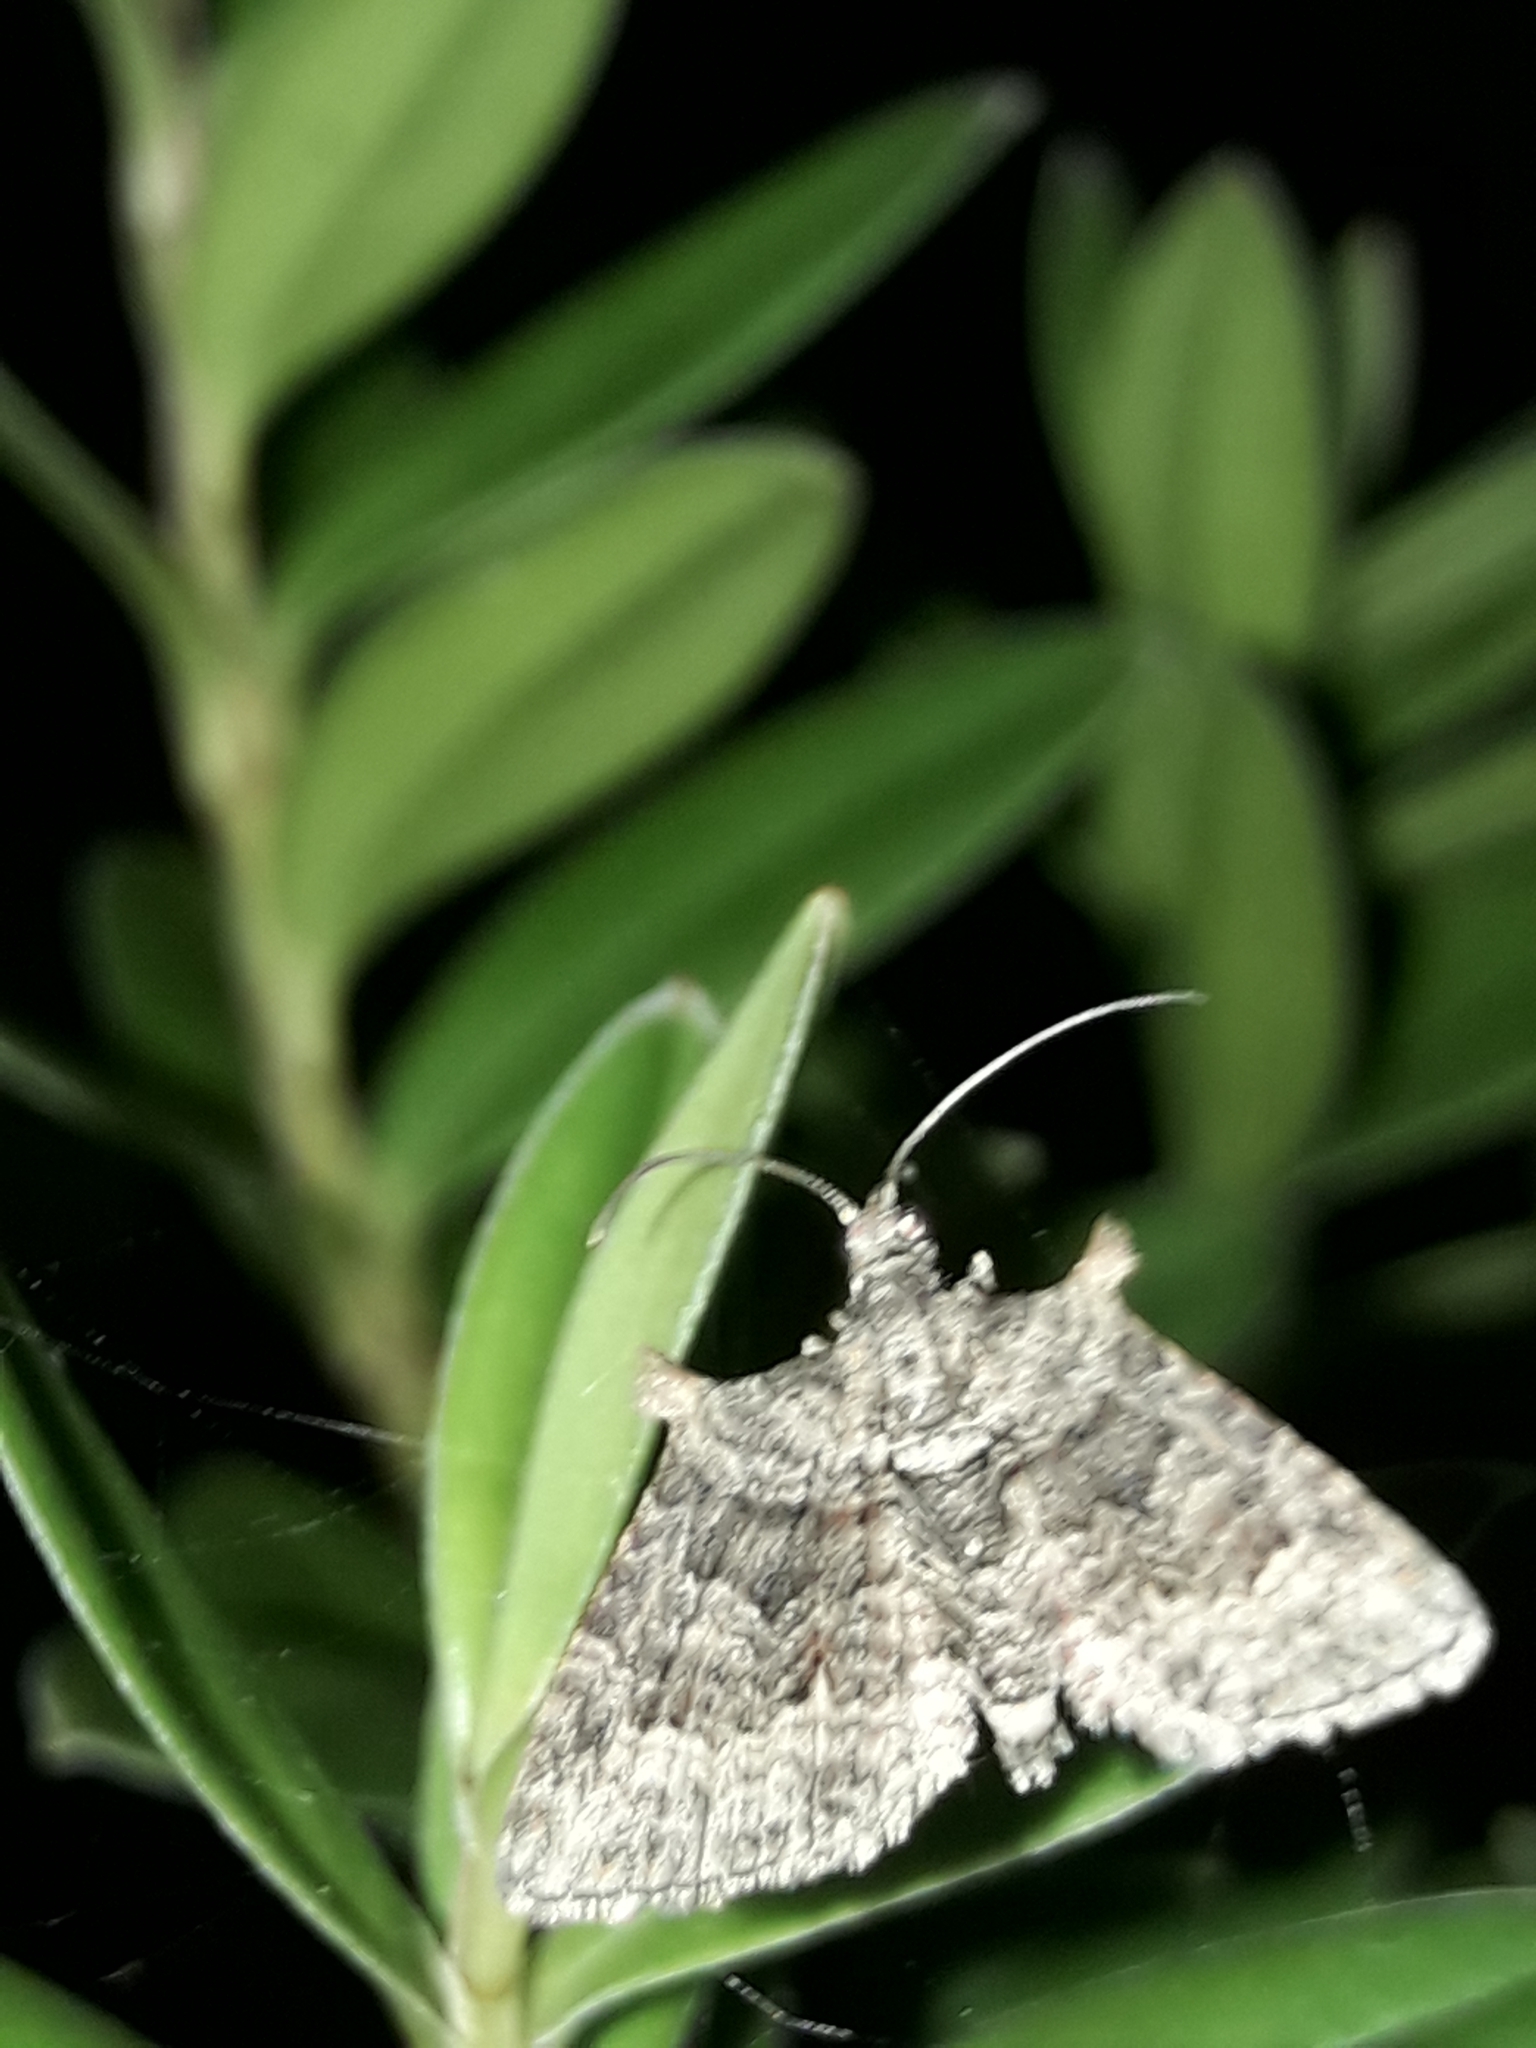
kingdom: Animalia
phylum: Arthropoda
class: Insecta
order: Lepidoptera
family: Geometridae
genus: Phrissogonus
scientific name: Phrissogonus laticostata
